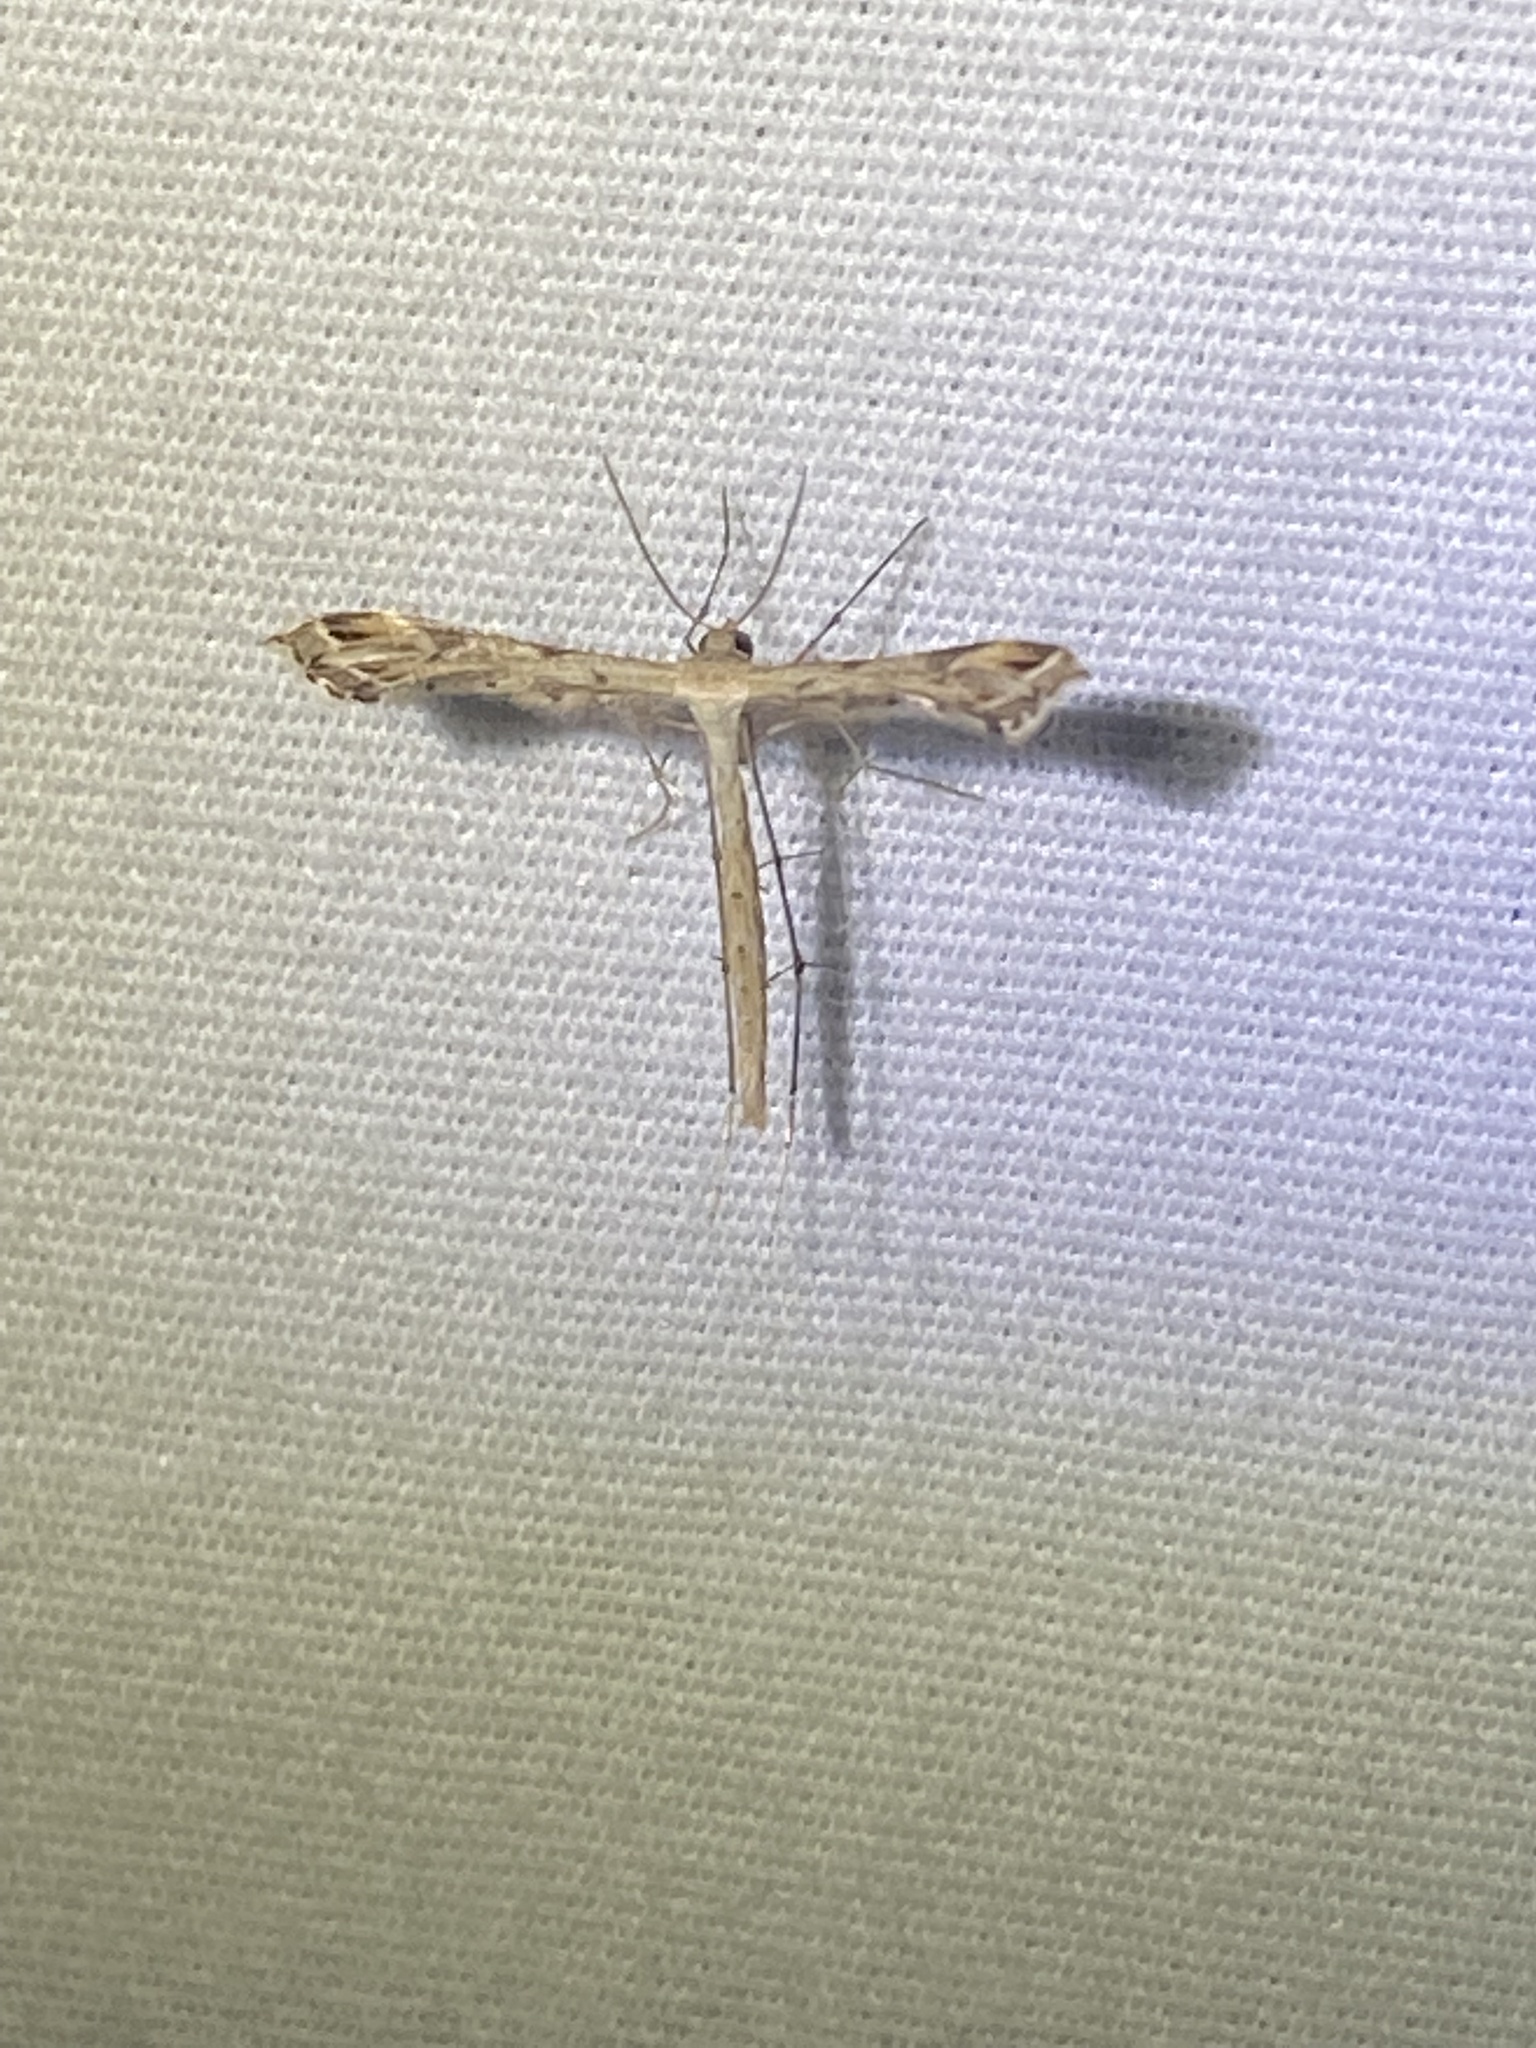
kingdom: Animalia
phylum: Arthropoda
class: Insecta
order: Lepidoptera
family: Pterophoridae
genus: Stenoptilodes
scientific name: Stenoptilodes
